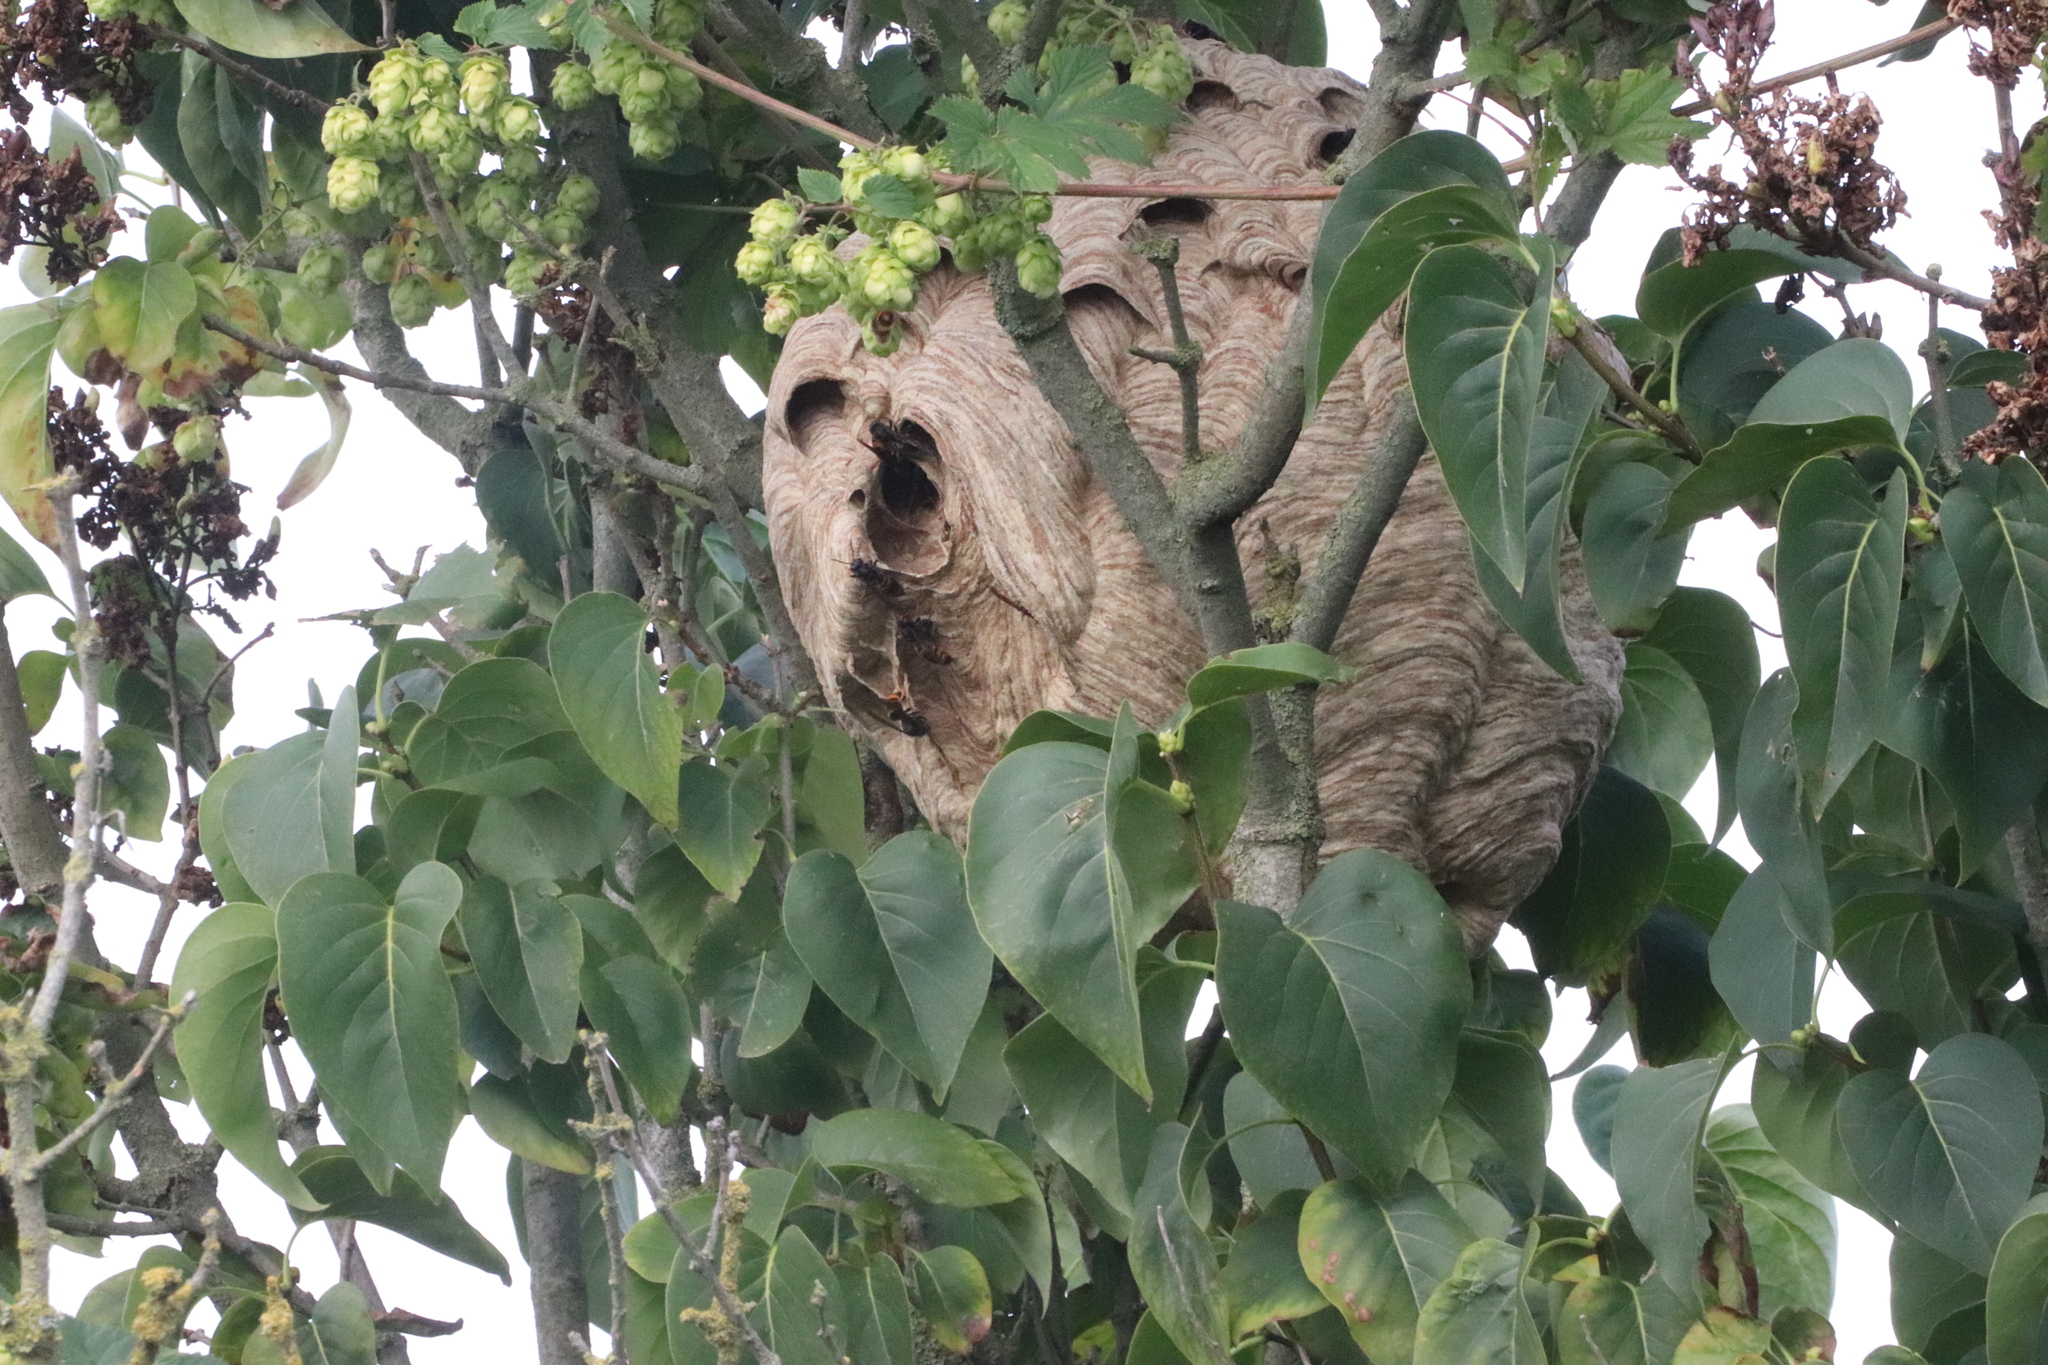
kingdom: Animalia
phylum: Arthropoda
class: Insecta
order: Hymenoptera
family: Vespidae
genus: Vespa
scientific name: Vespa velutina
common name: Asian hornet
